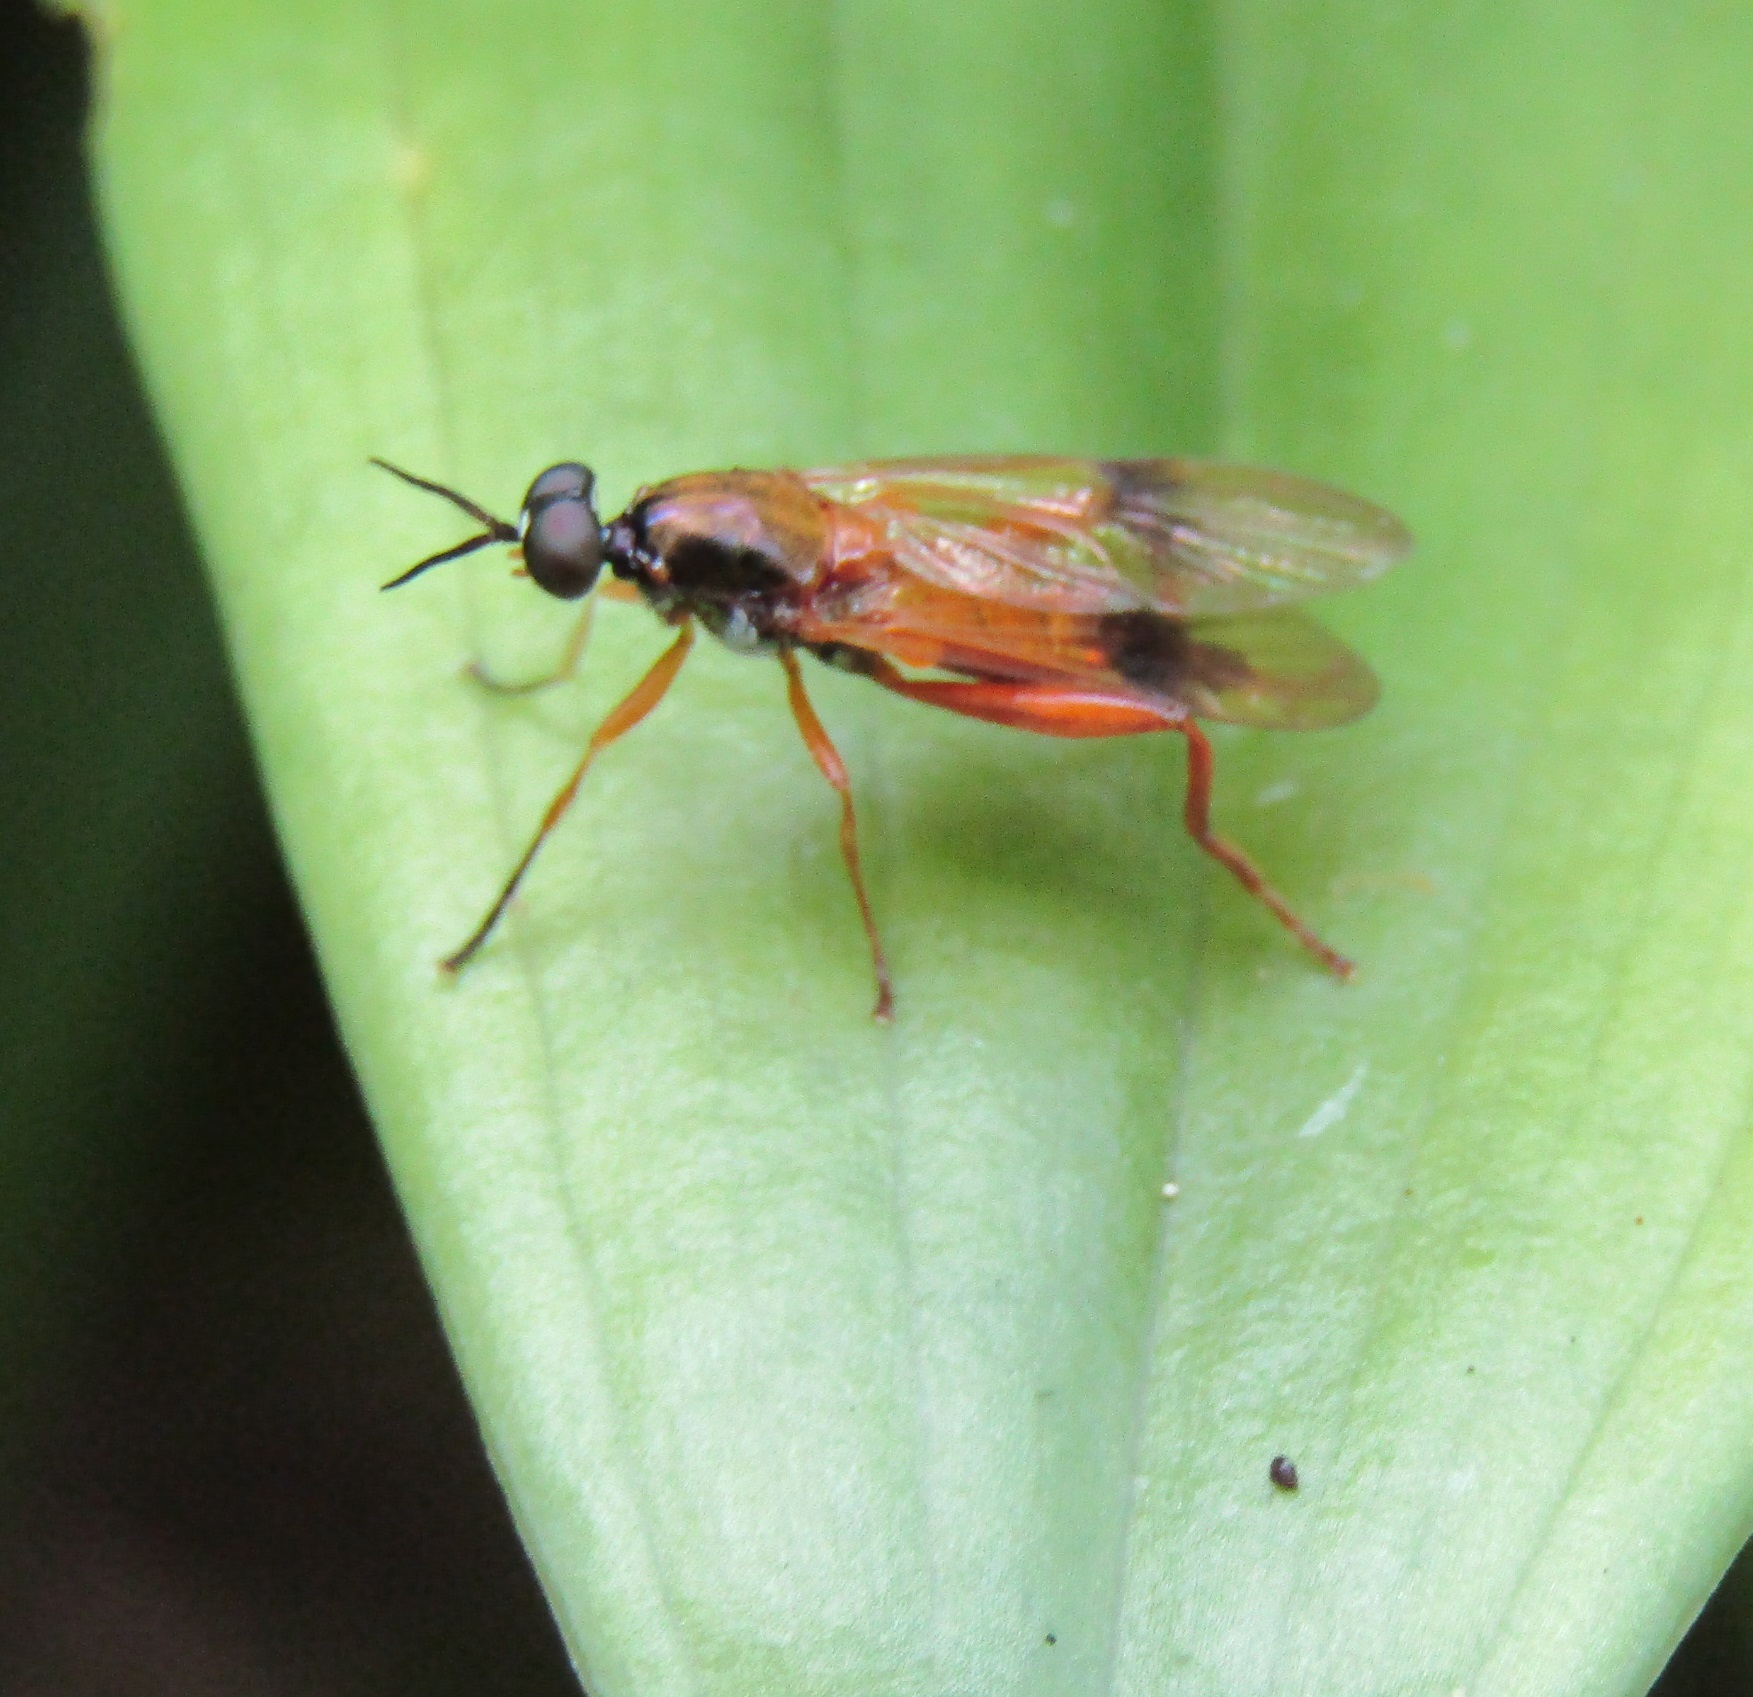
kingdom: Animalia
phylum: Arthropoda
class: Insecta
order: Diptera
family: Stratiomyidae
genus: Benhamyia
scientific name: Benhamyia apicalis
